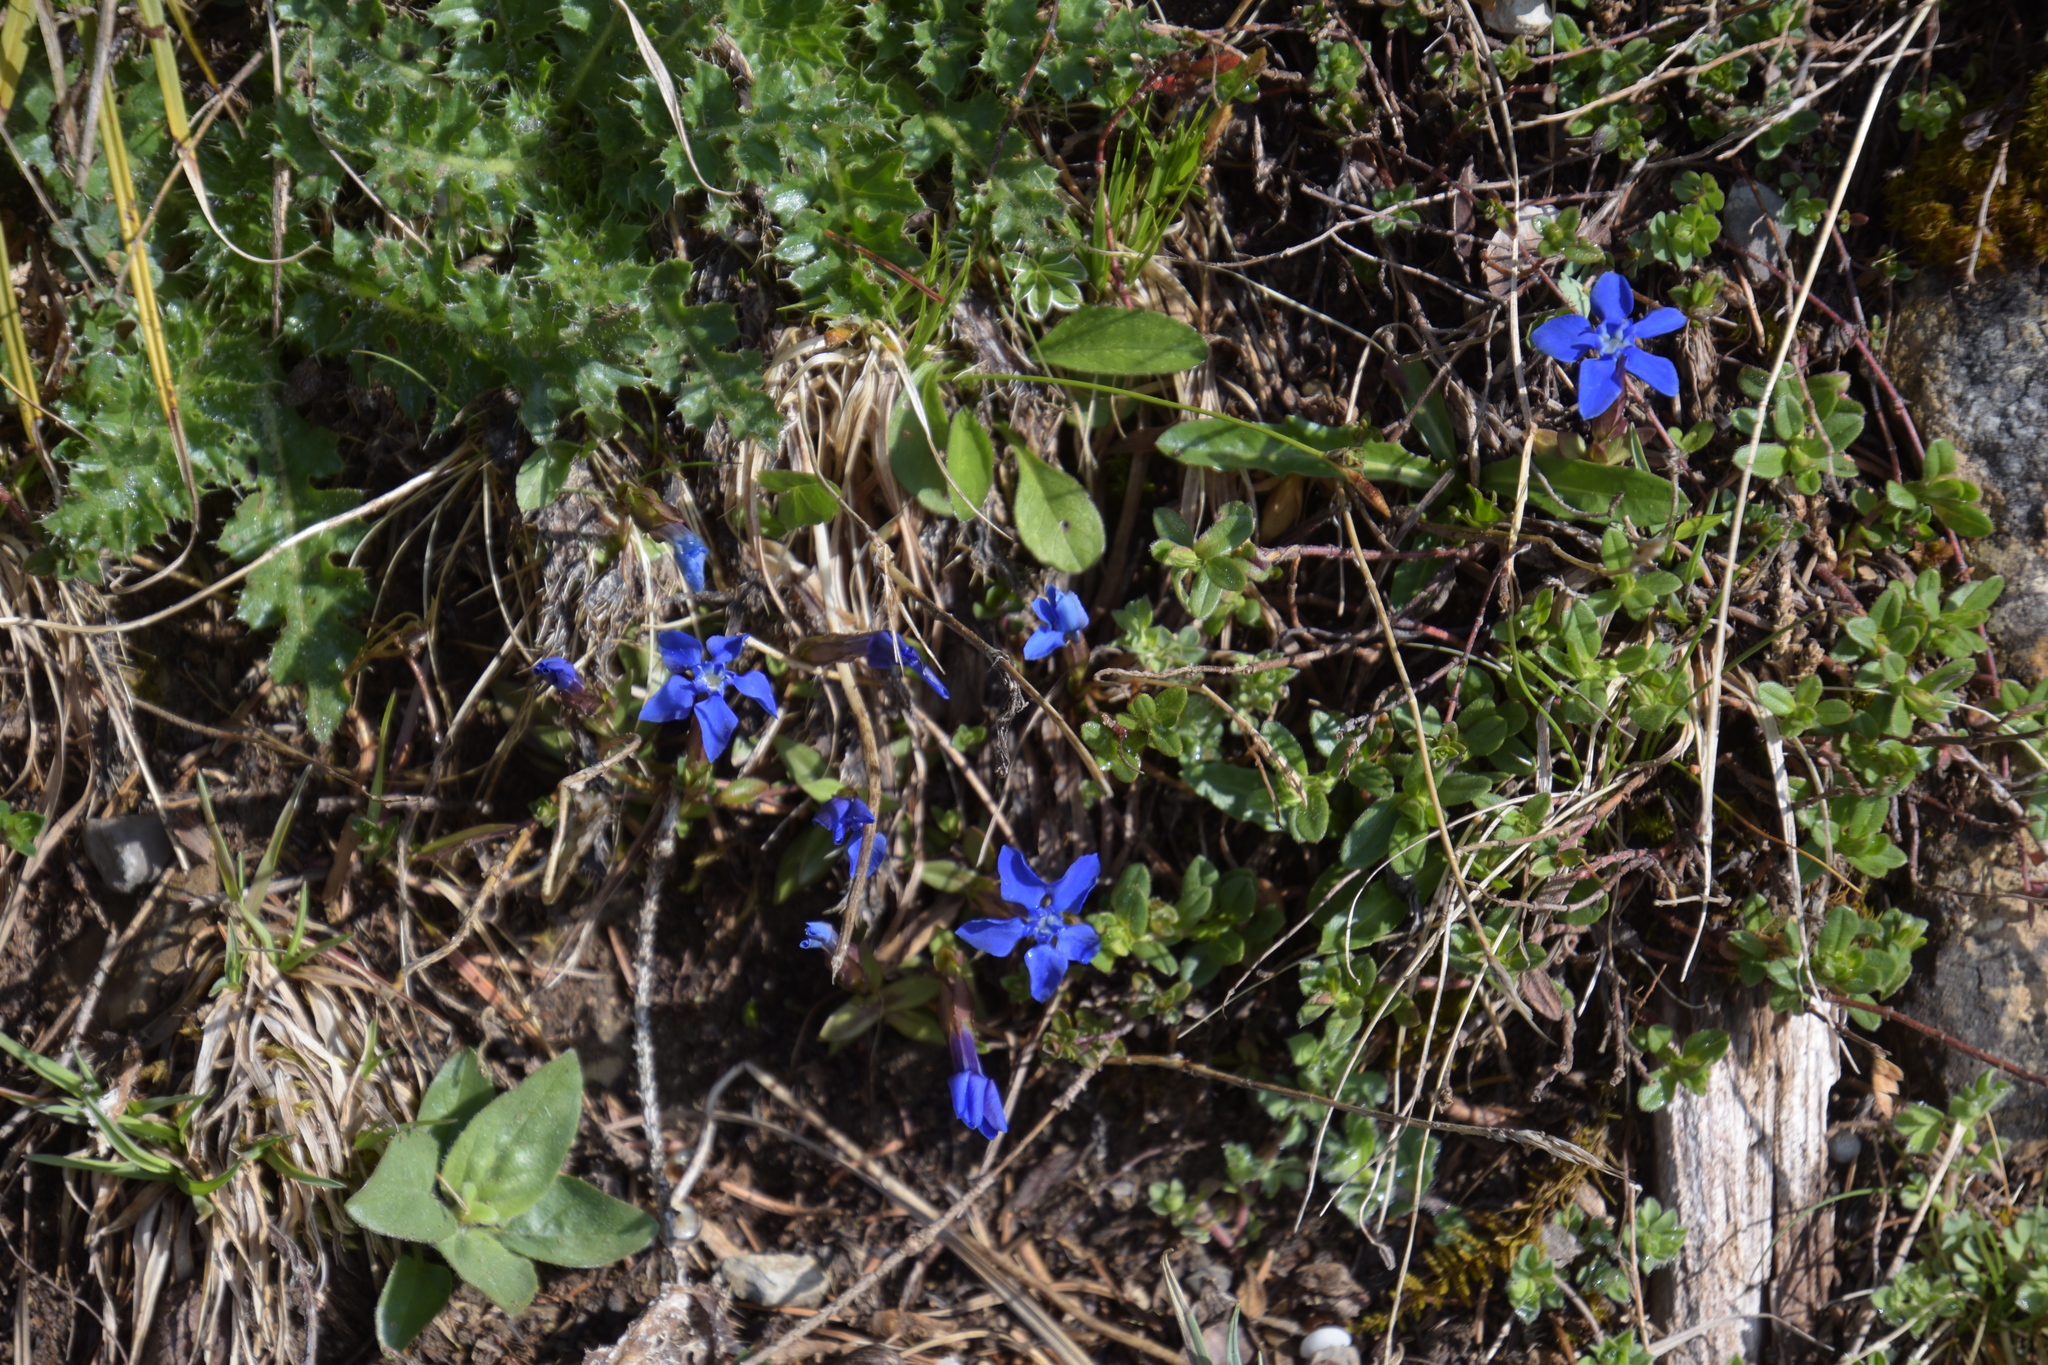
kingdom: Plantae
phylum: Tracheophyta
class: Magnoliopsida
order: Gentianales
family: Gentianaceae
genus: Gentiana
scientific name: Gentiana verna
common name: Spring gentian
